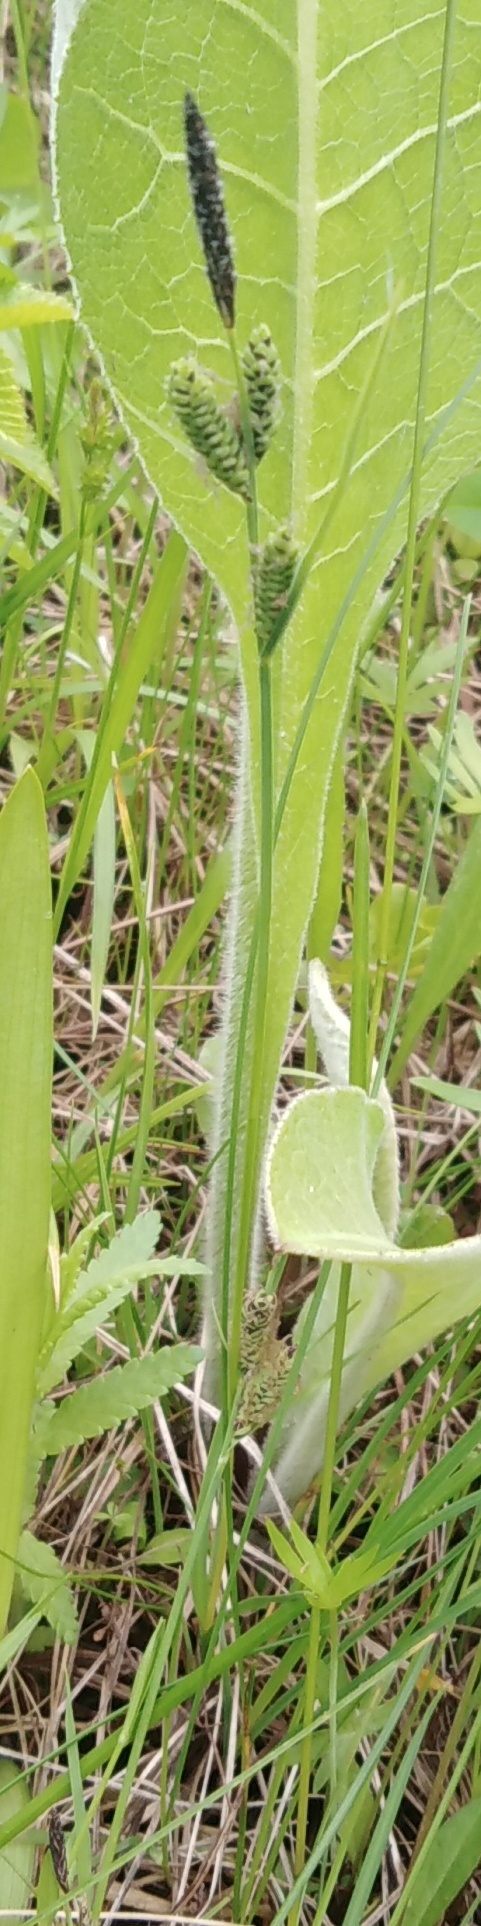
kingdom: Plantae
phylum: Tracheophyta
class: Liliopsida
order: Poales
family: Cyperaceae
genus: Carex
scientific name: Carex nigra
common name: Common sedge
